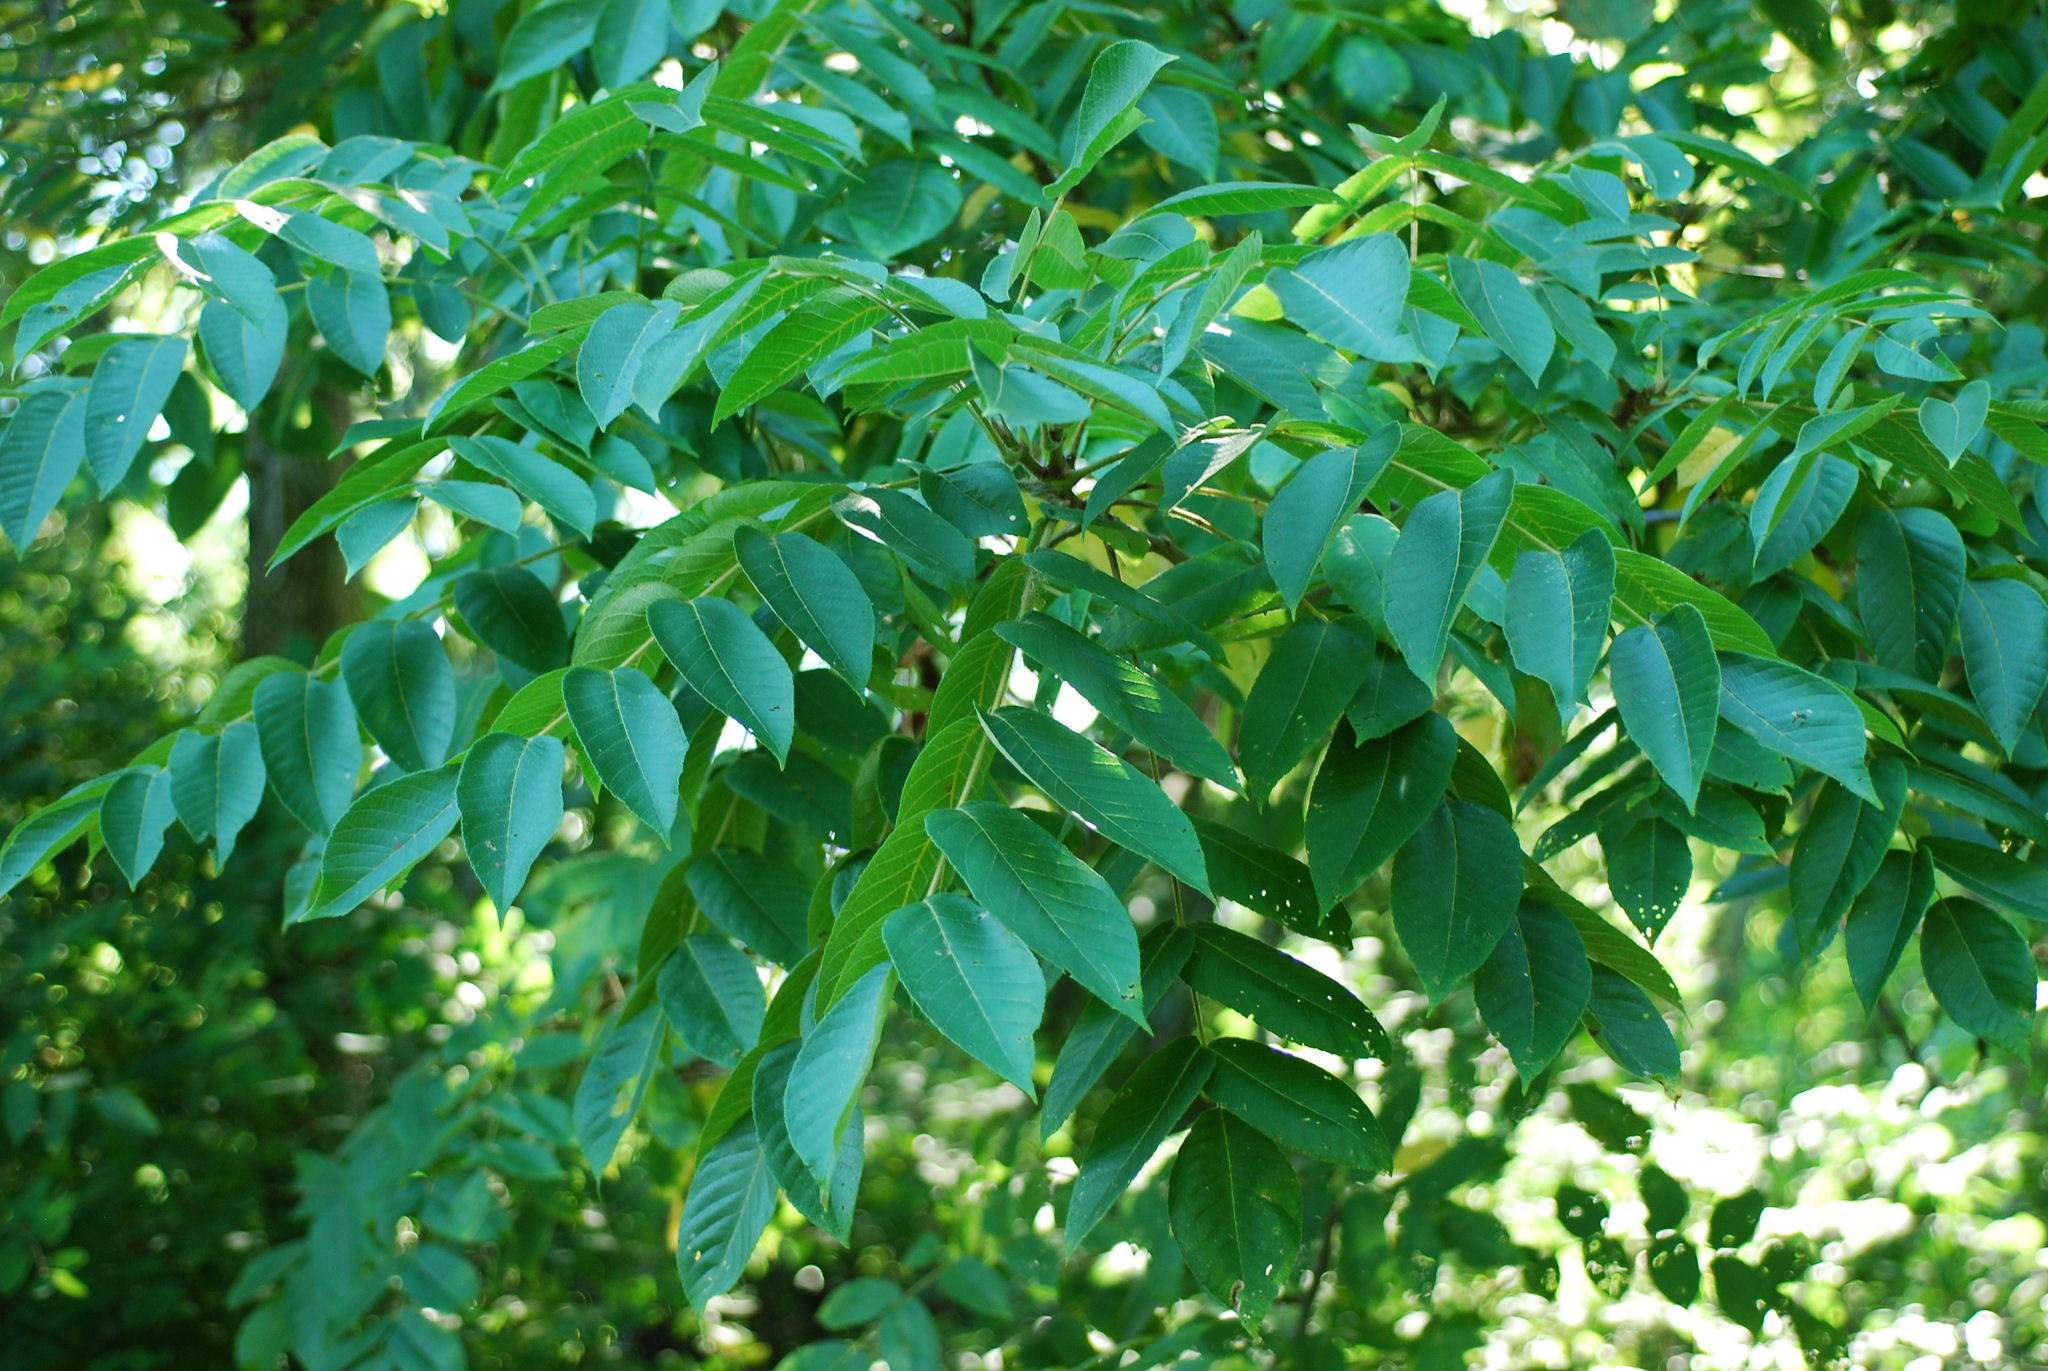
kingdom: Plantae
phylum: Tracheophyta
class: Magnoliopsida
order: Fagales
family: Juglandaceae
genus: Juglans
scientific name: Juglans bixbyi
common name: Bixby's walnut
